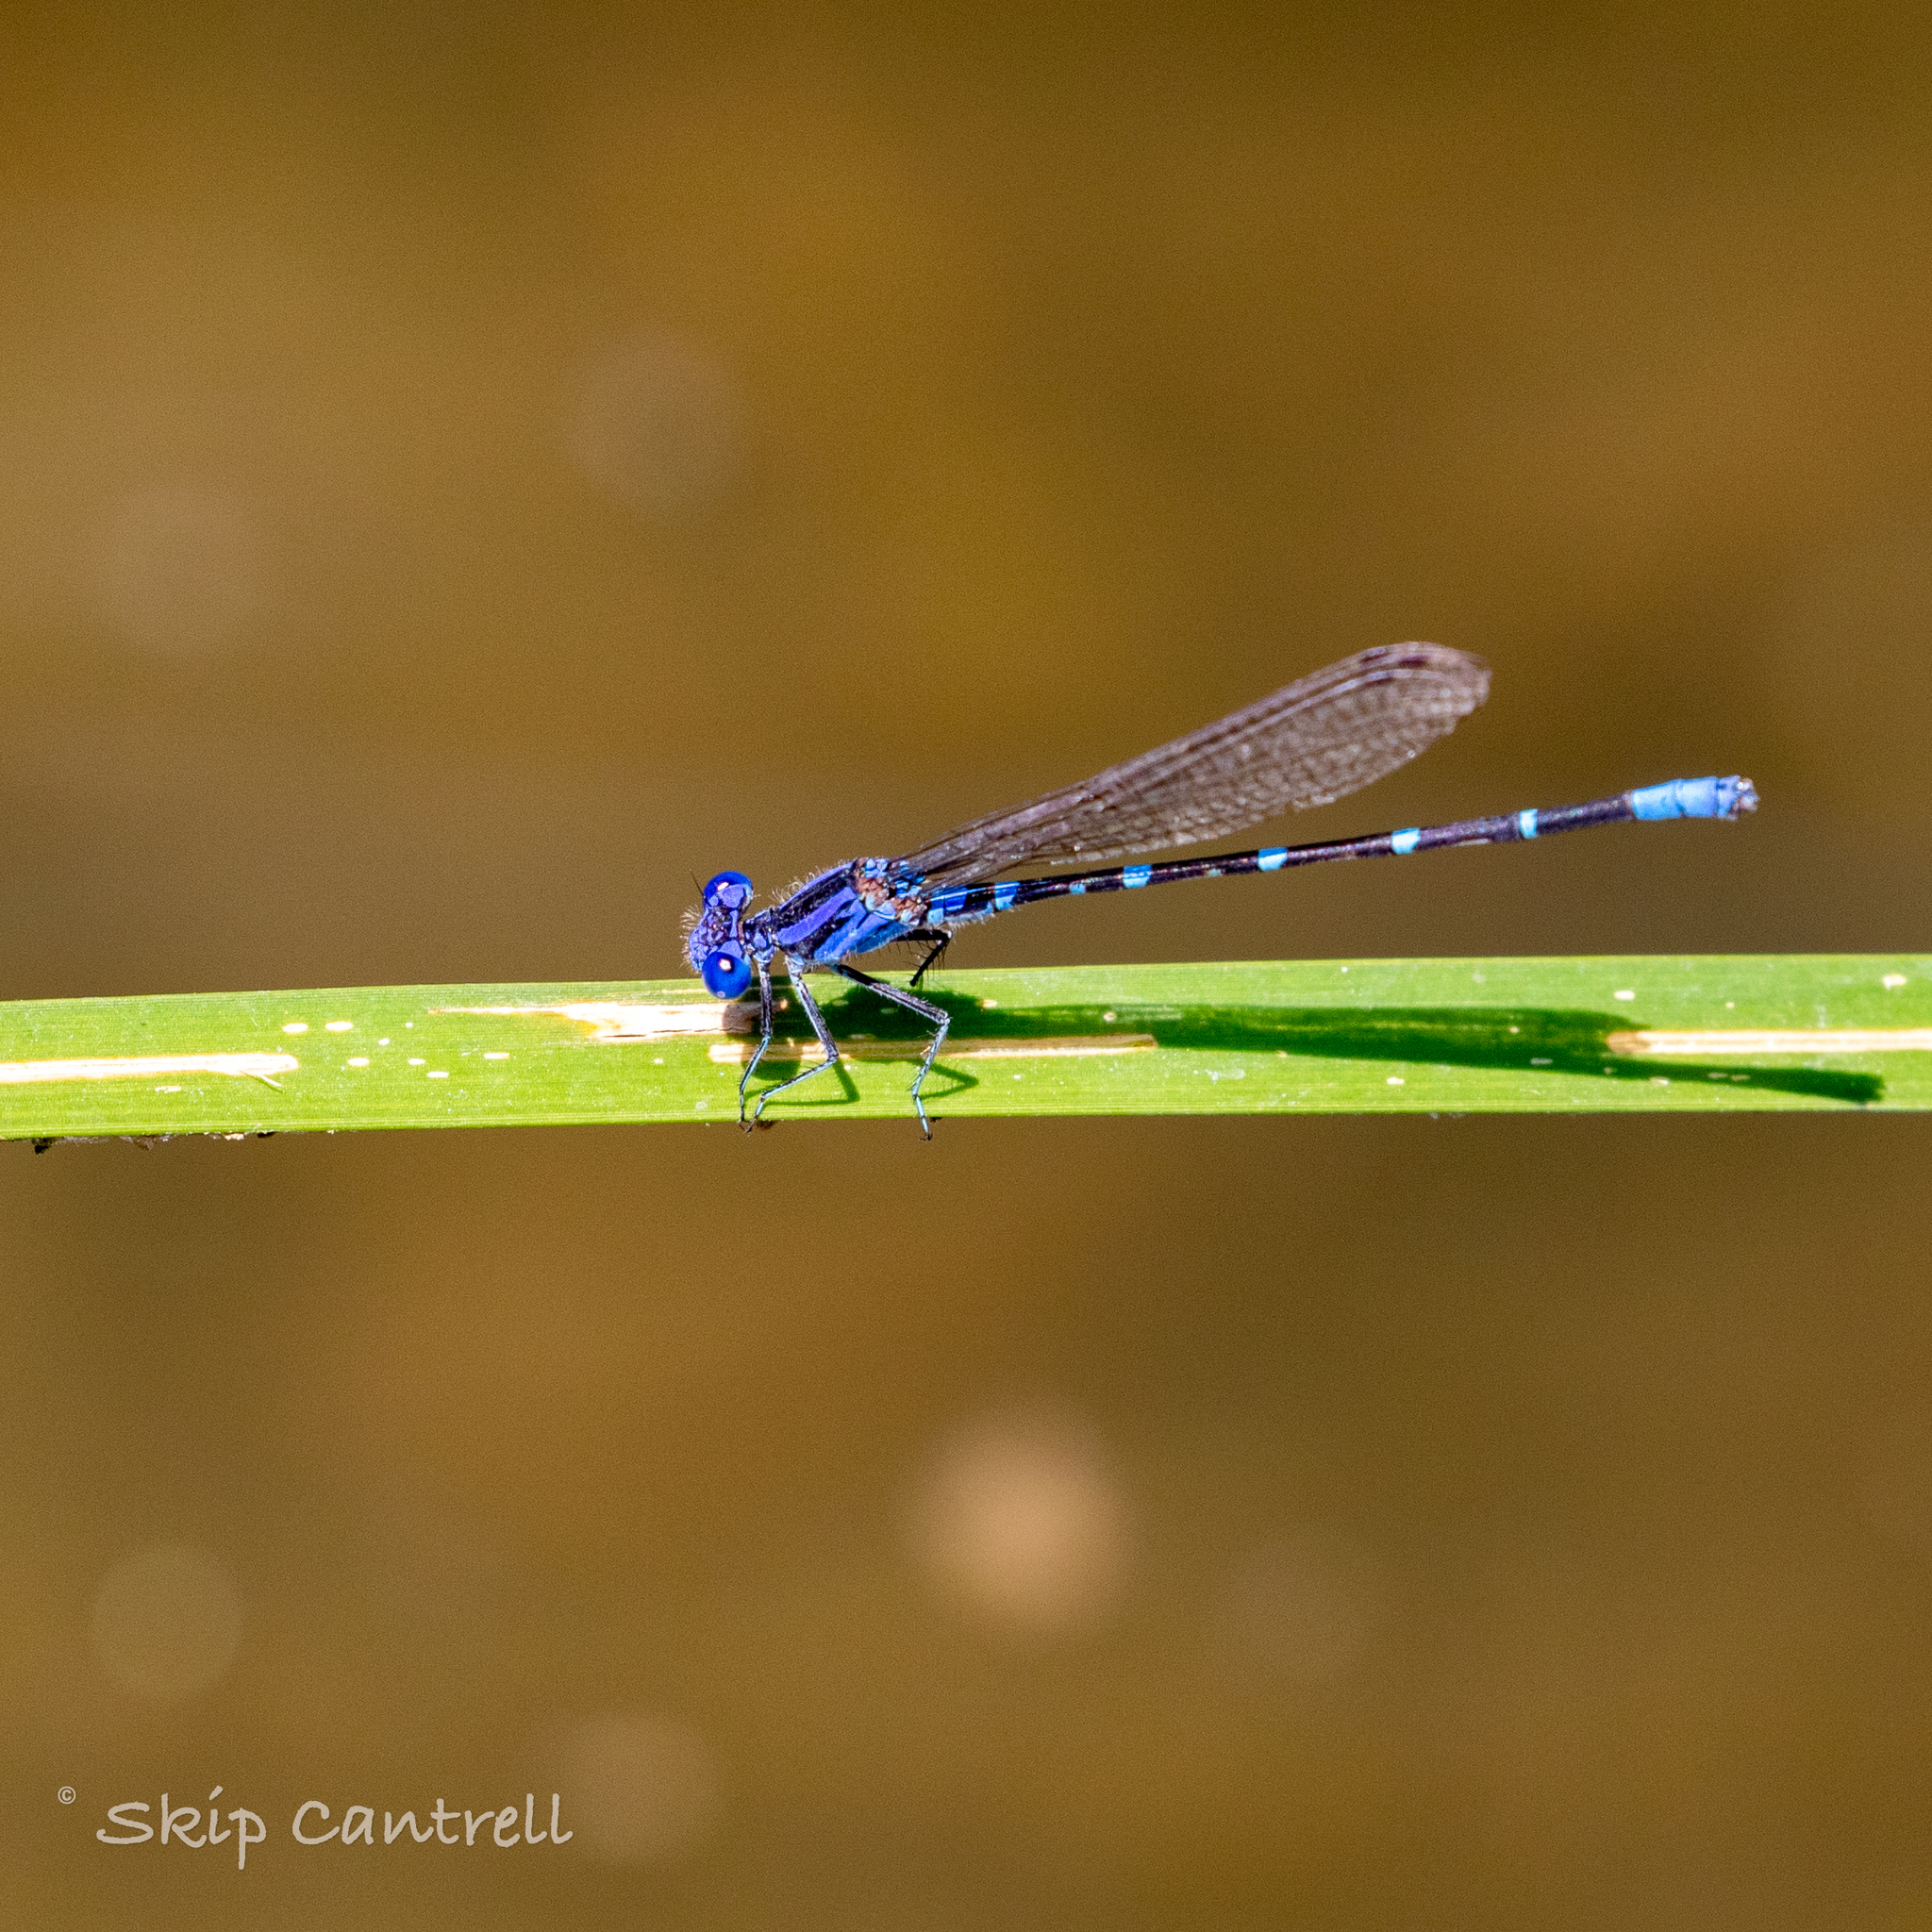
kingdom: Animalia
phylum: Arthropoda
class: Insecta
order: Odonata
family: Coenagrionidae
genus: Argia
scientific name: Argia sedula
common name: Blue-ringed dancer
